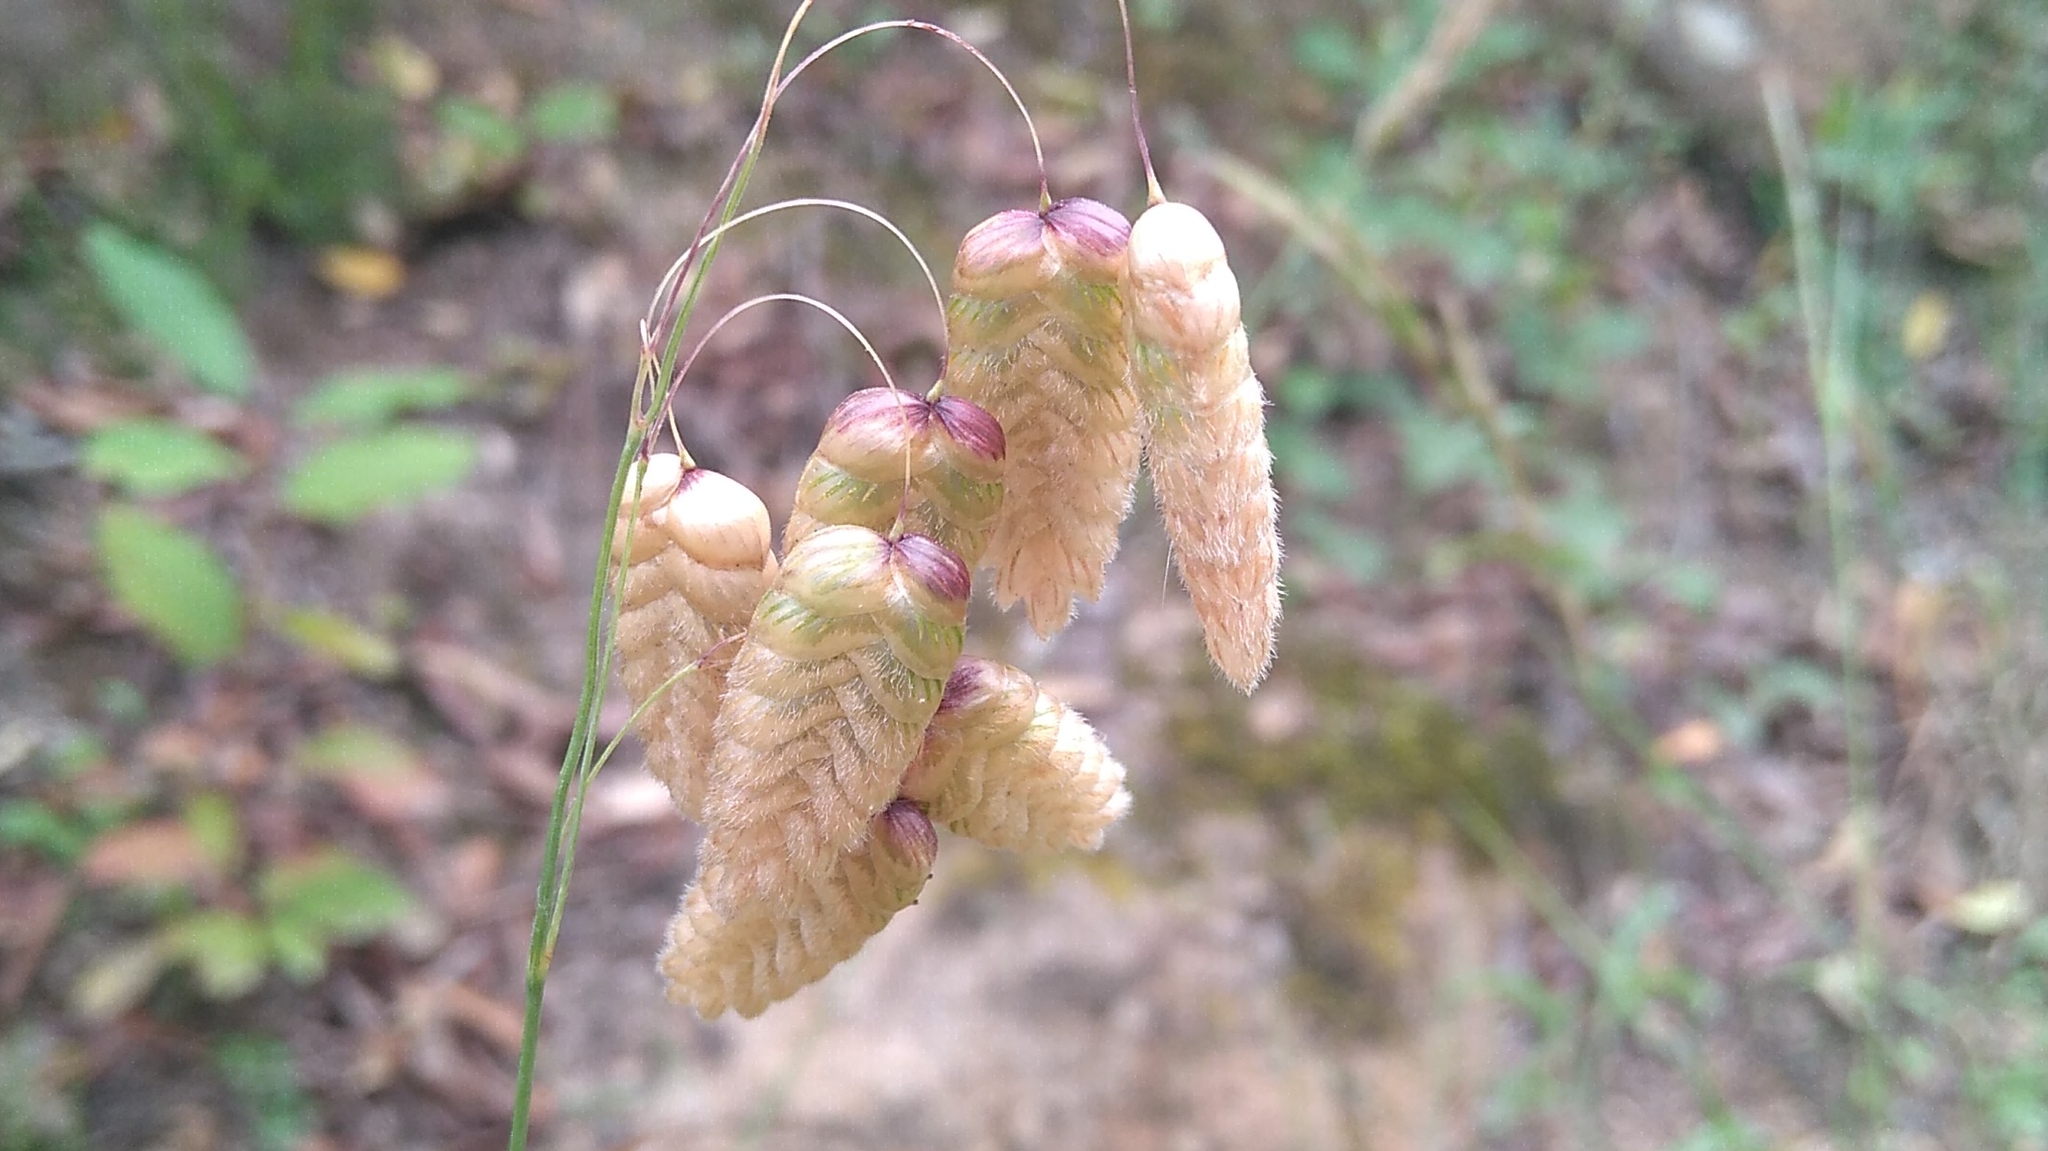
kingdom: Plantae
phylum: Tracheophyta
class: Liliopsida
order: Poales
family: Poaceae
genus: Briza
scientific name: Briza maxima
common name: Big quakinggrass
